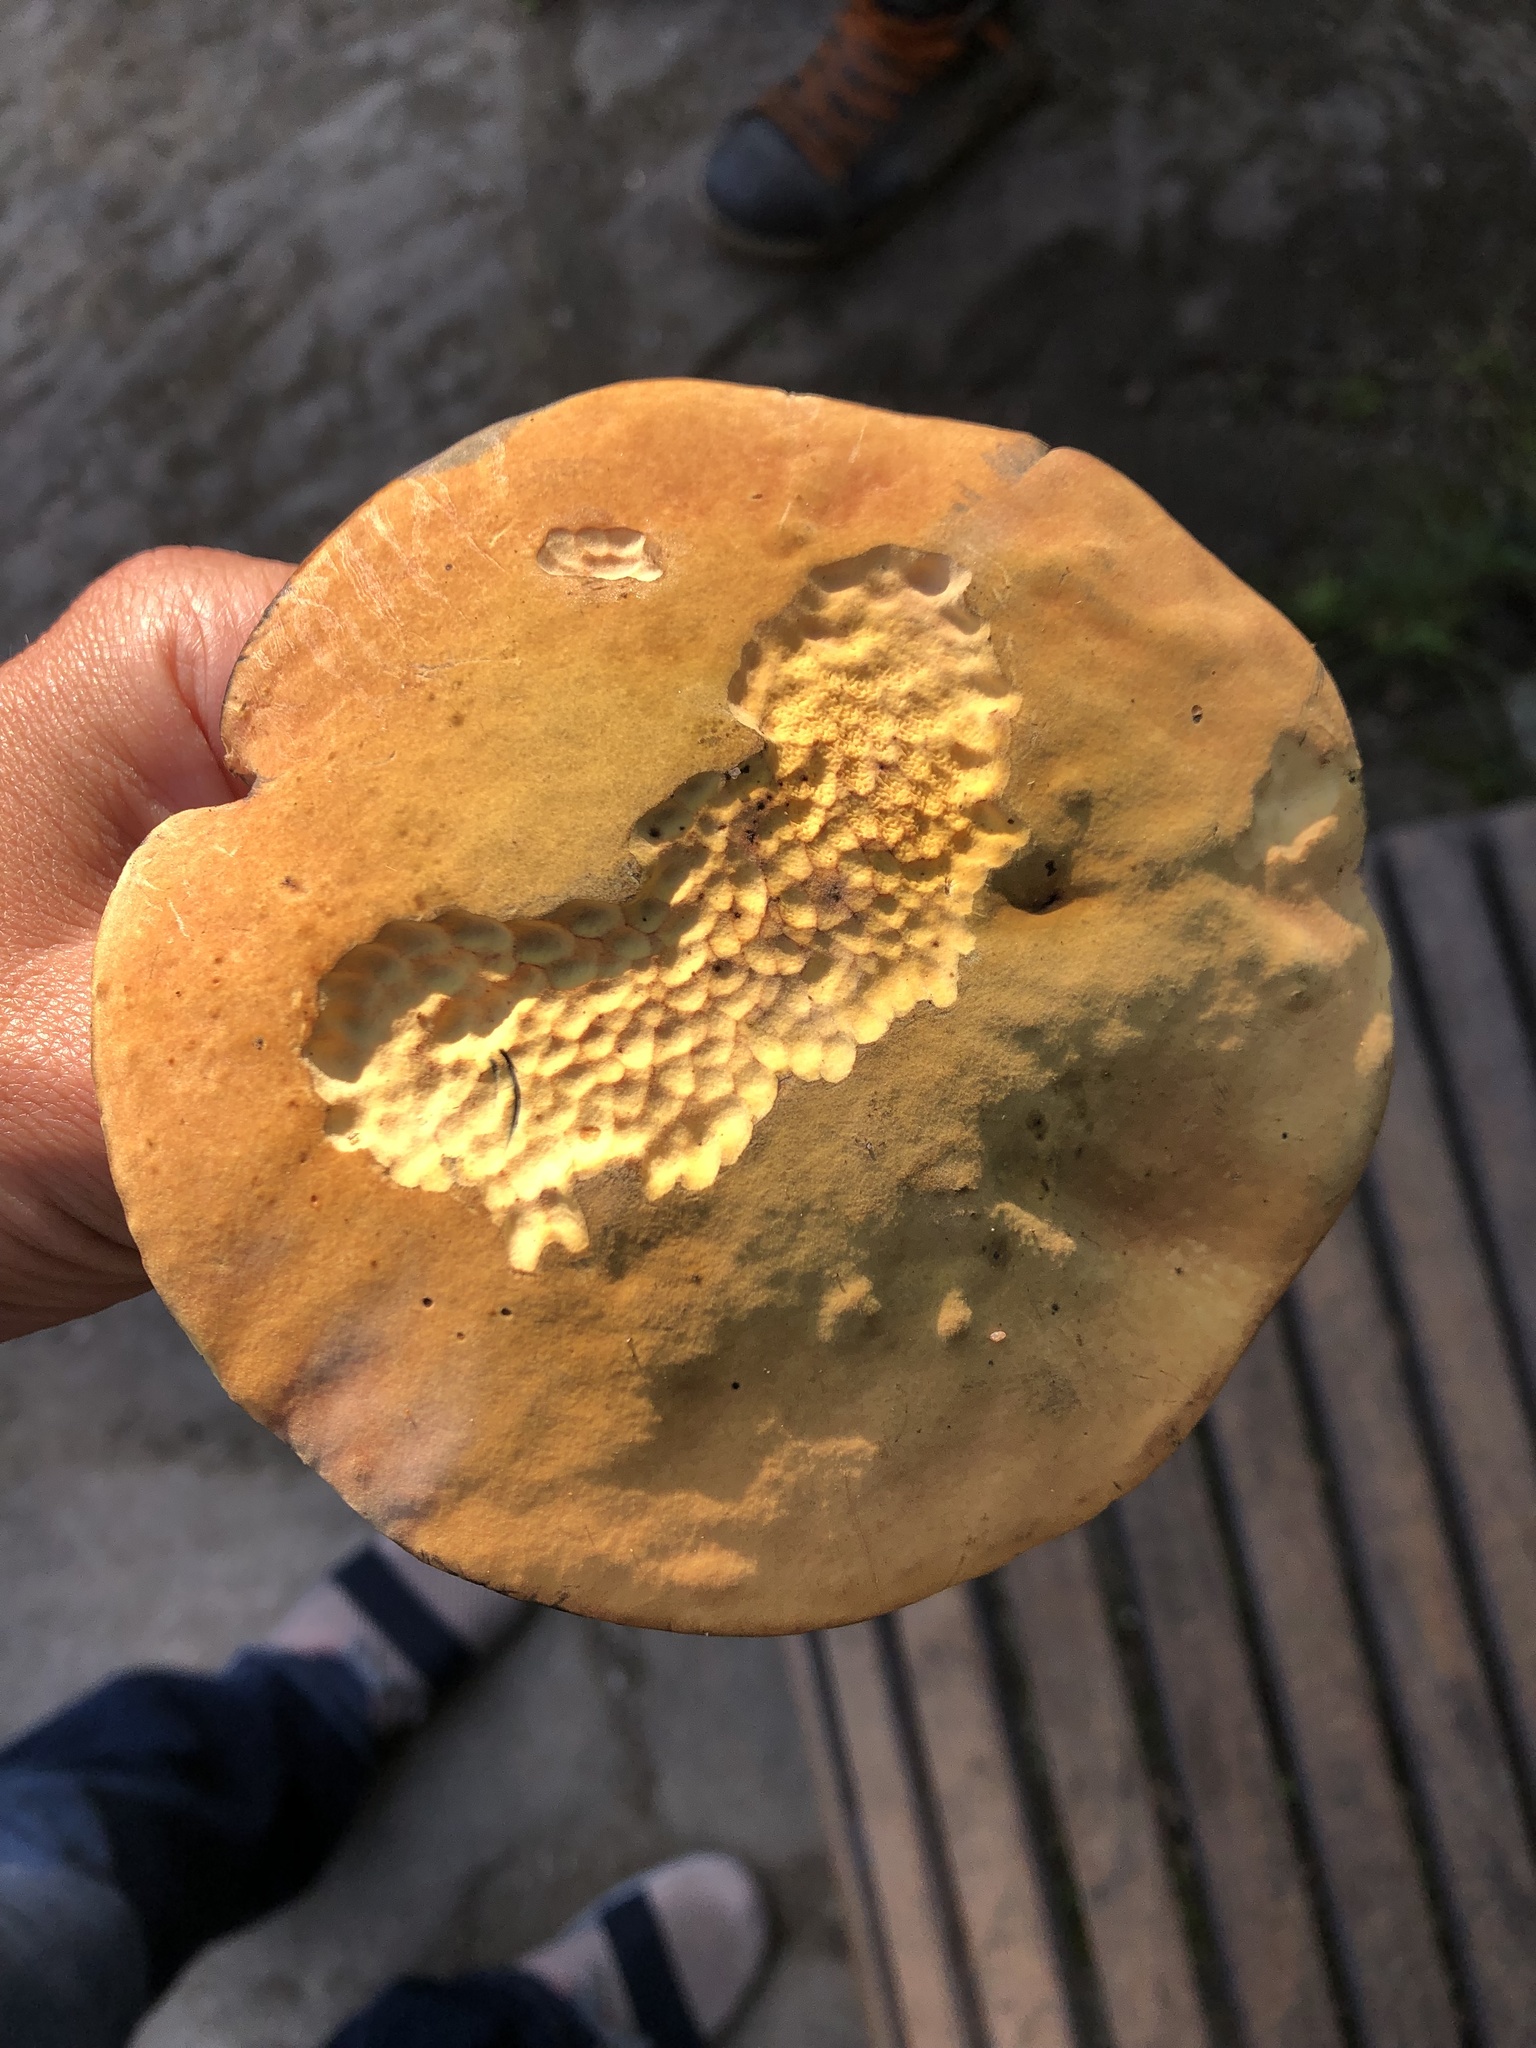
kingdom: Fungi
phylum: Basidiomycota
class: Agaricomycetes
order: Boletales
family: Boletaceae
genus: Suillellus
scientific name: Suillellus luridus
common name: Lurid bolete
